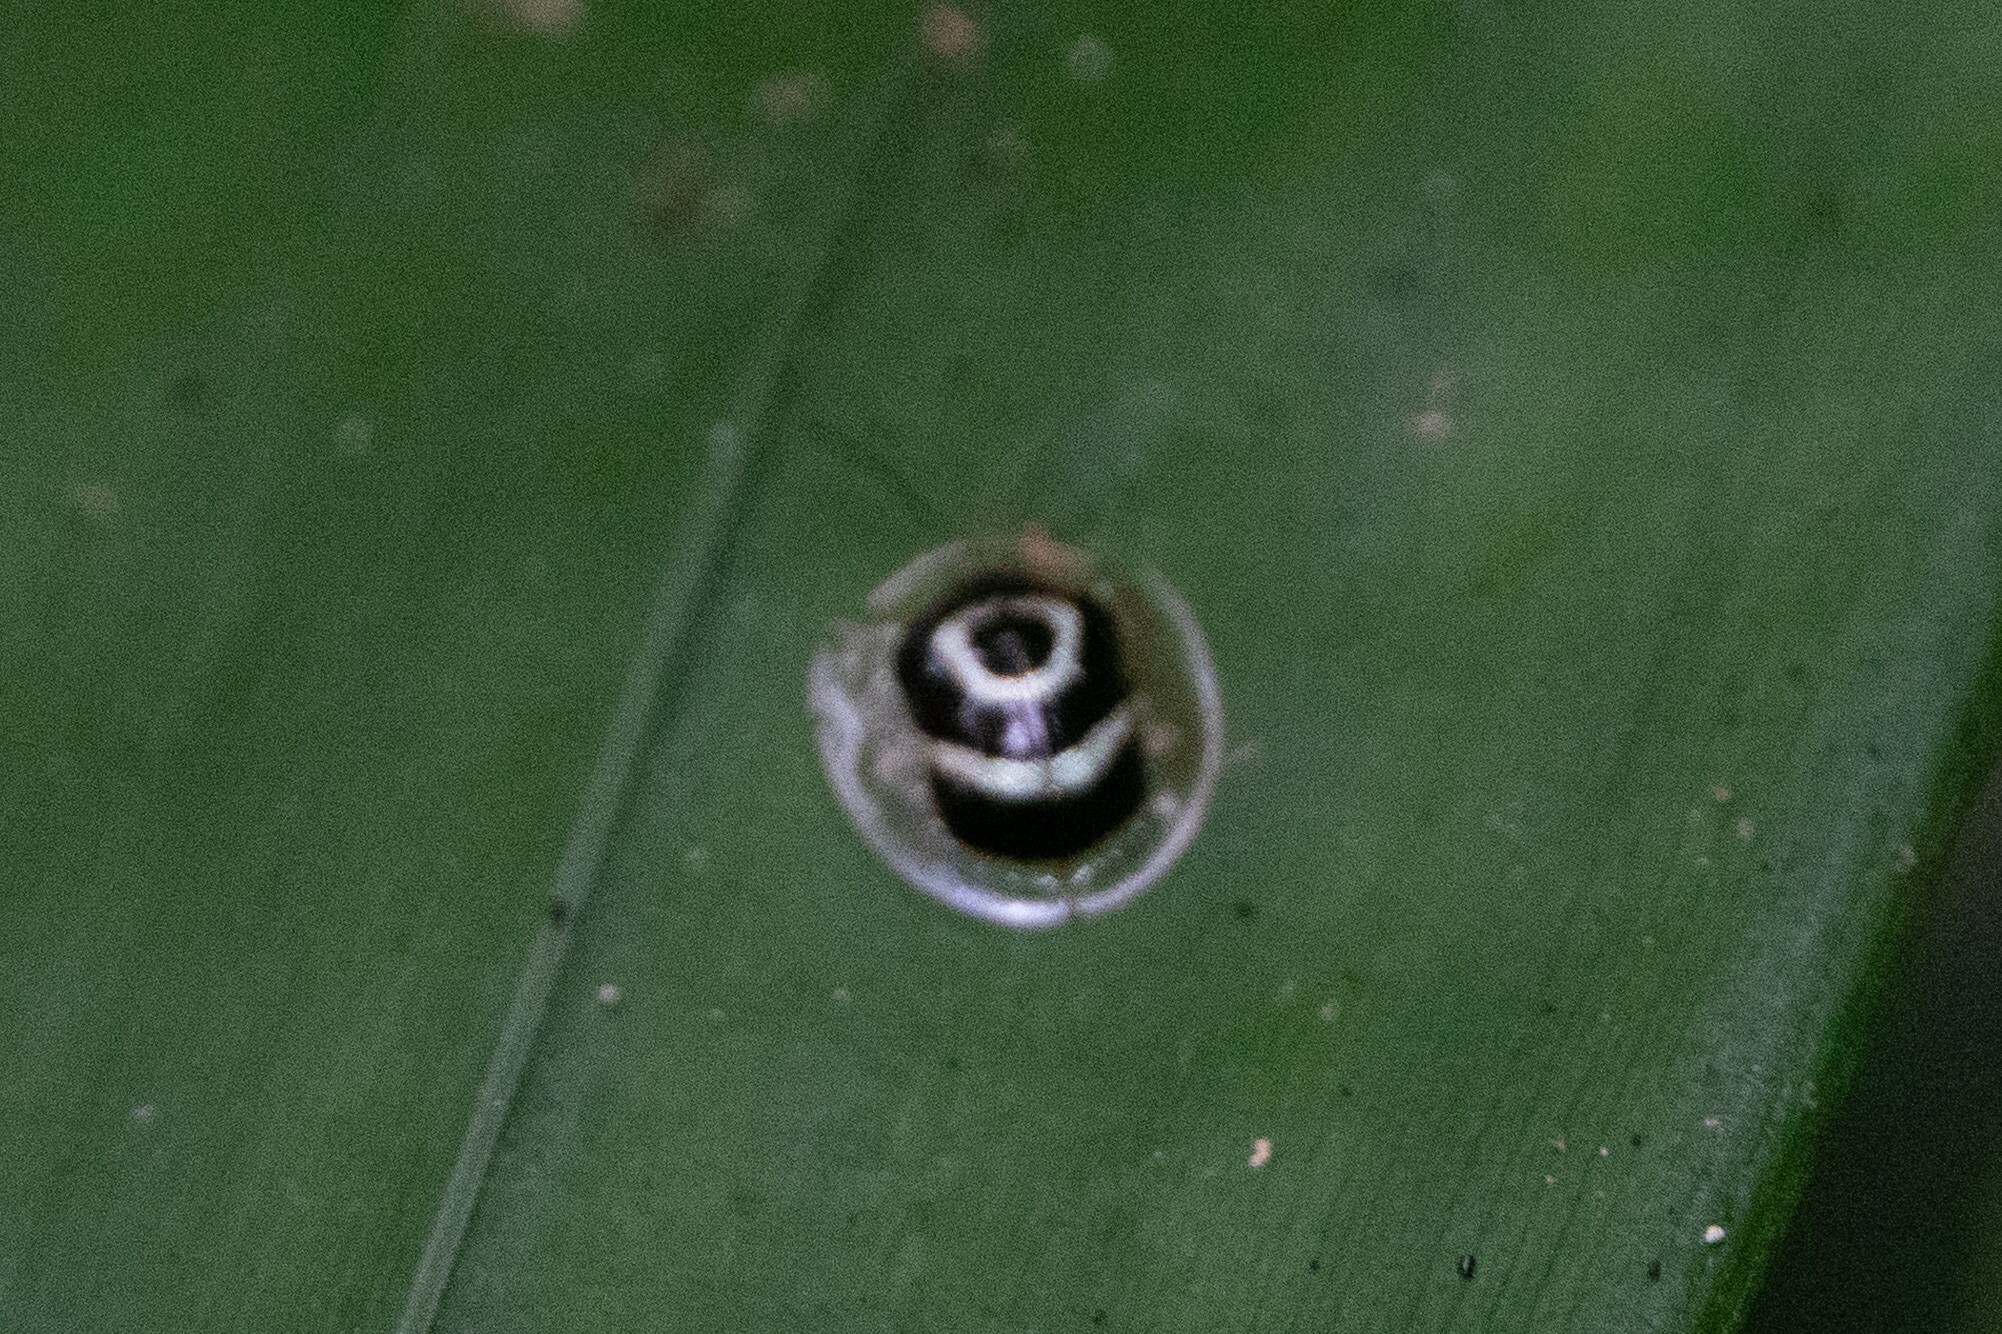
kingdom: Animalia
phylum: Arthropoda
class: Insecta
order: Coleoptera
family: Chrysomelidae
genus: Ischnocodia
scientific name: Ischnocodia annulus
